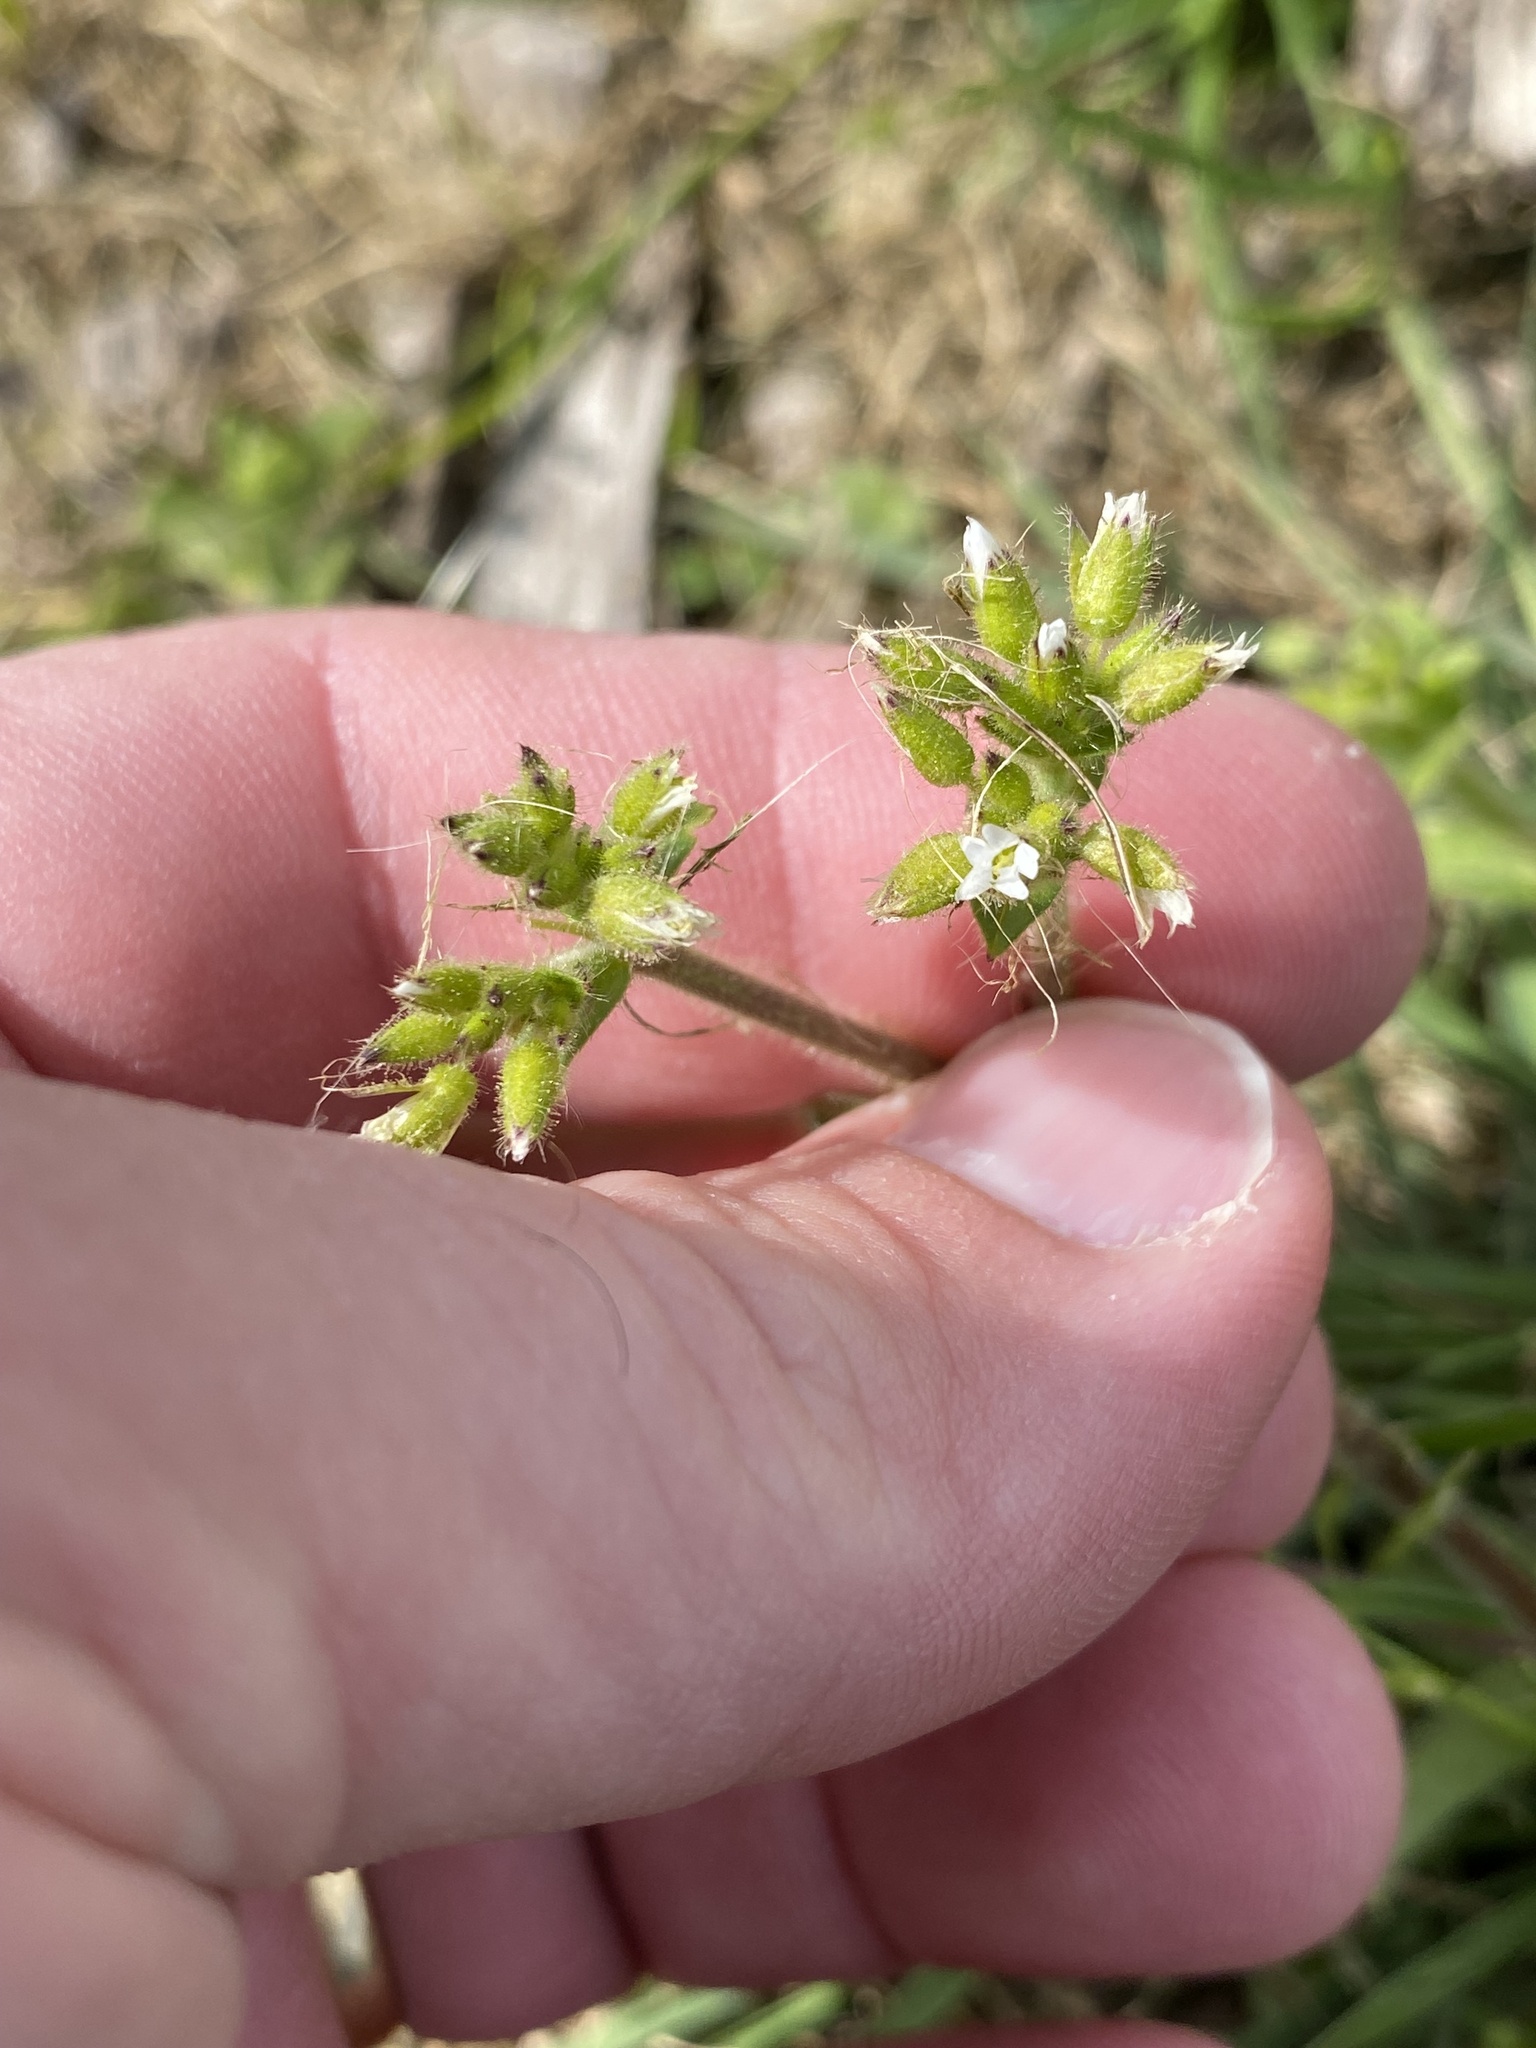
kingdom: Plantae
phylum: Tracheophyta
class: Magnoliopsida
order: Caryophyllales
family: Caryophyllaceae
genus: Cerastium
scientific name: Cerastium glomeratum
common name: Sticky chickweed
